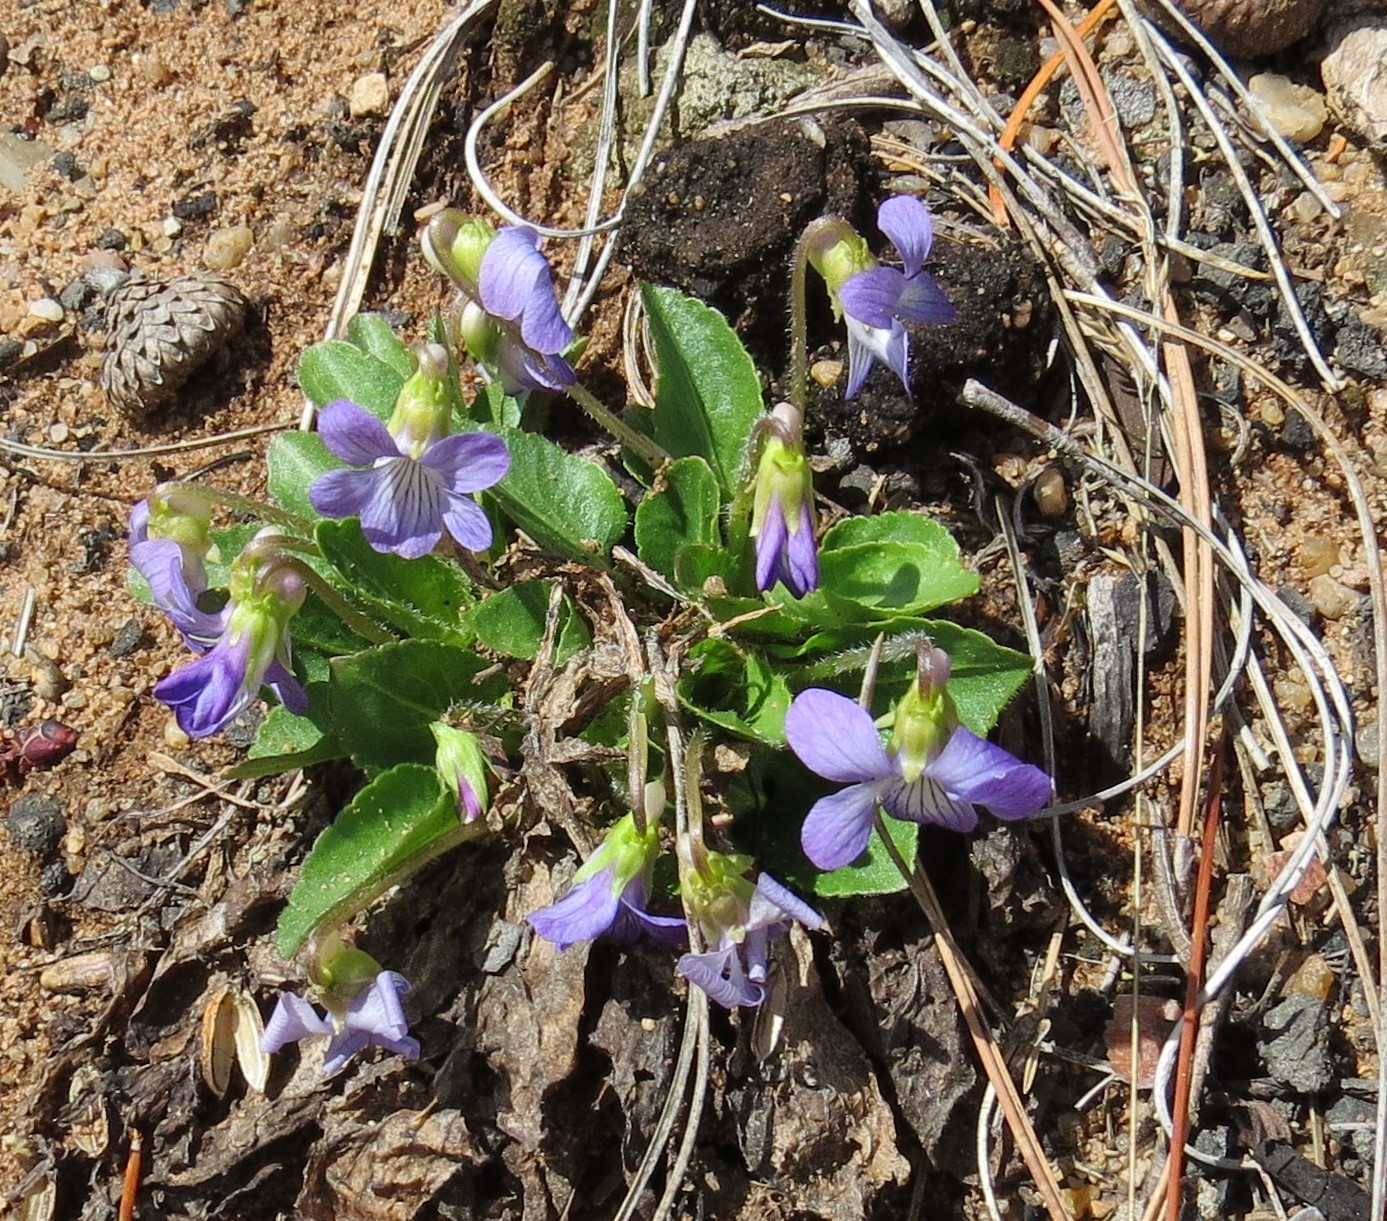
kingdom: Plantae
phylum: Tracheophyta
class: Magnoliopsida
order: Malpighiales
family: Violaceae
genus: Viola
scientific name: Viola sagittata
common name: Arrowhead violet
